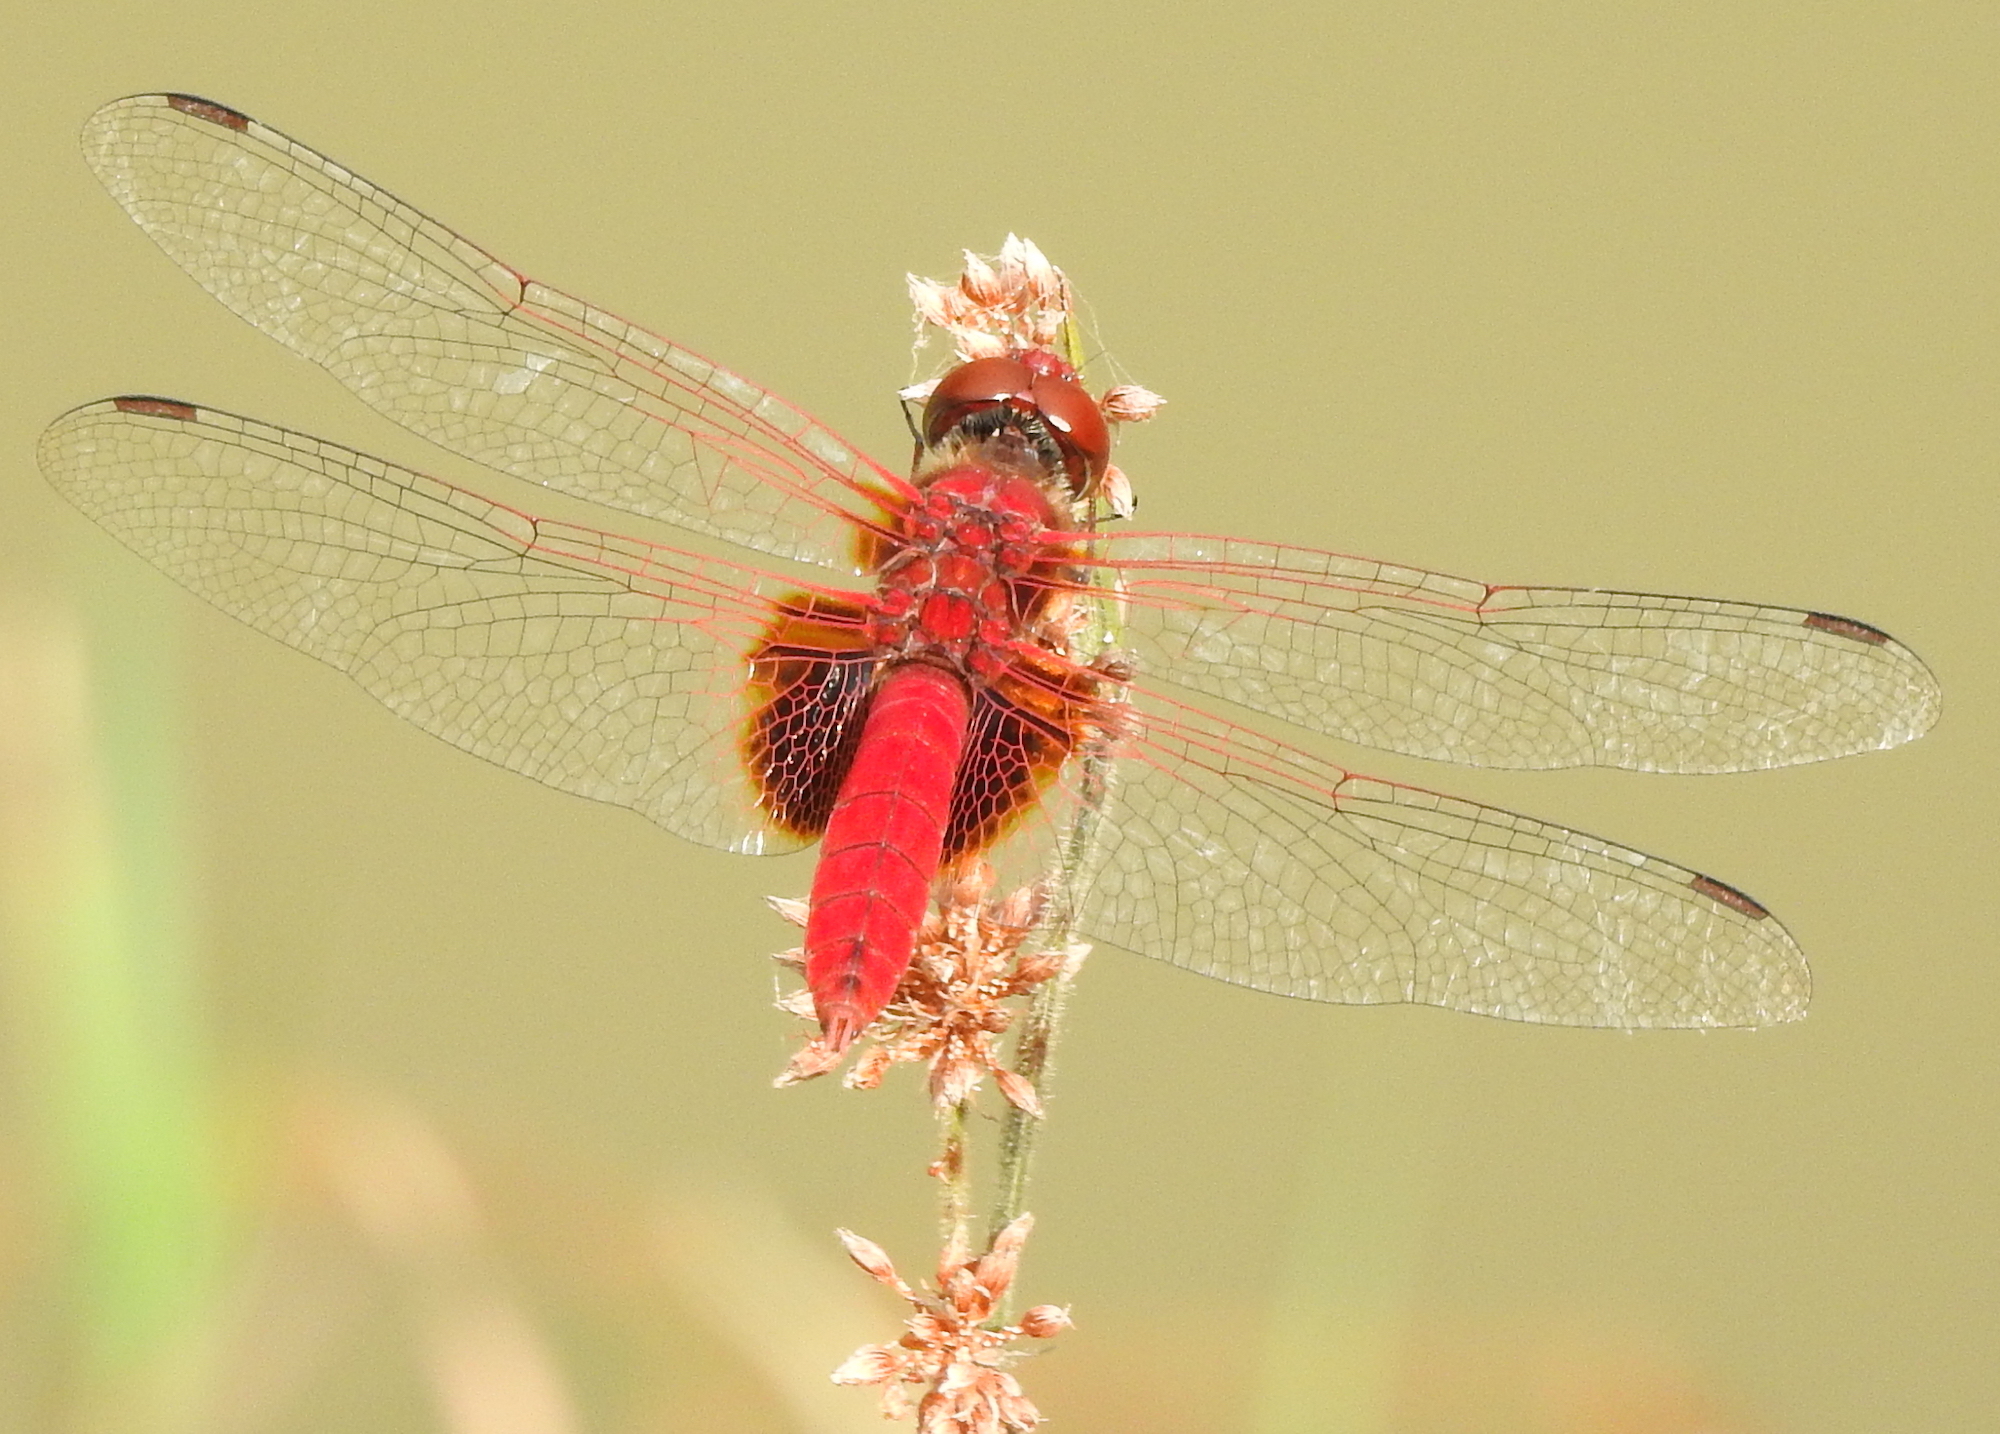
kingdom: Animalia
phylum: Arthropoda
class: Insecta
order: Odonata
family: Libellulidae
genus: Urothemis
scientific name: Urothemis signata
